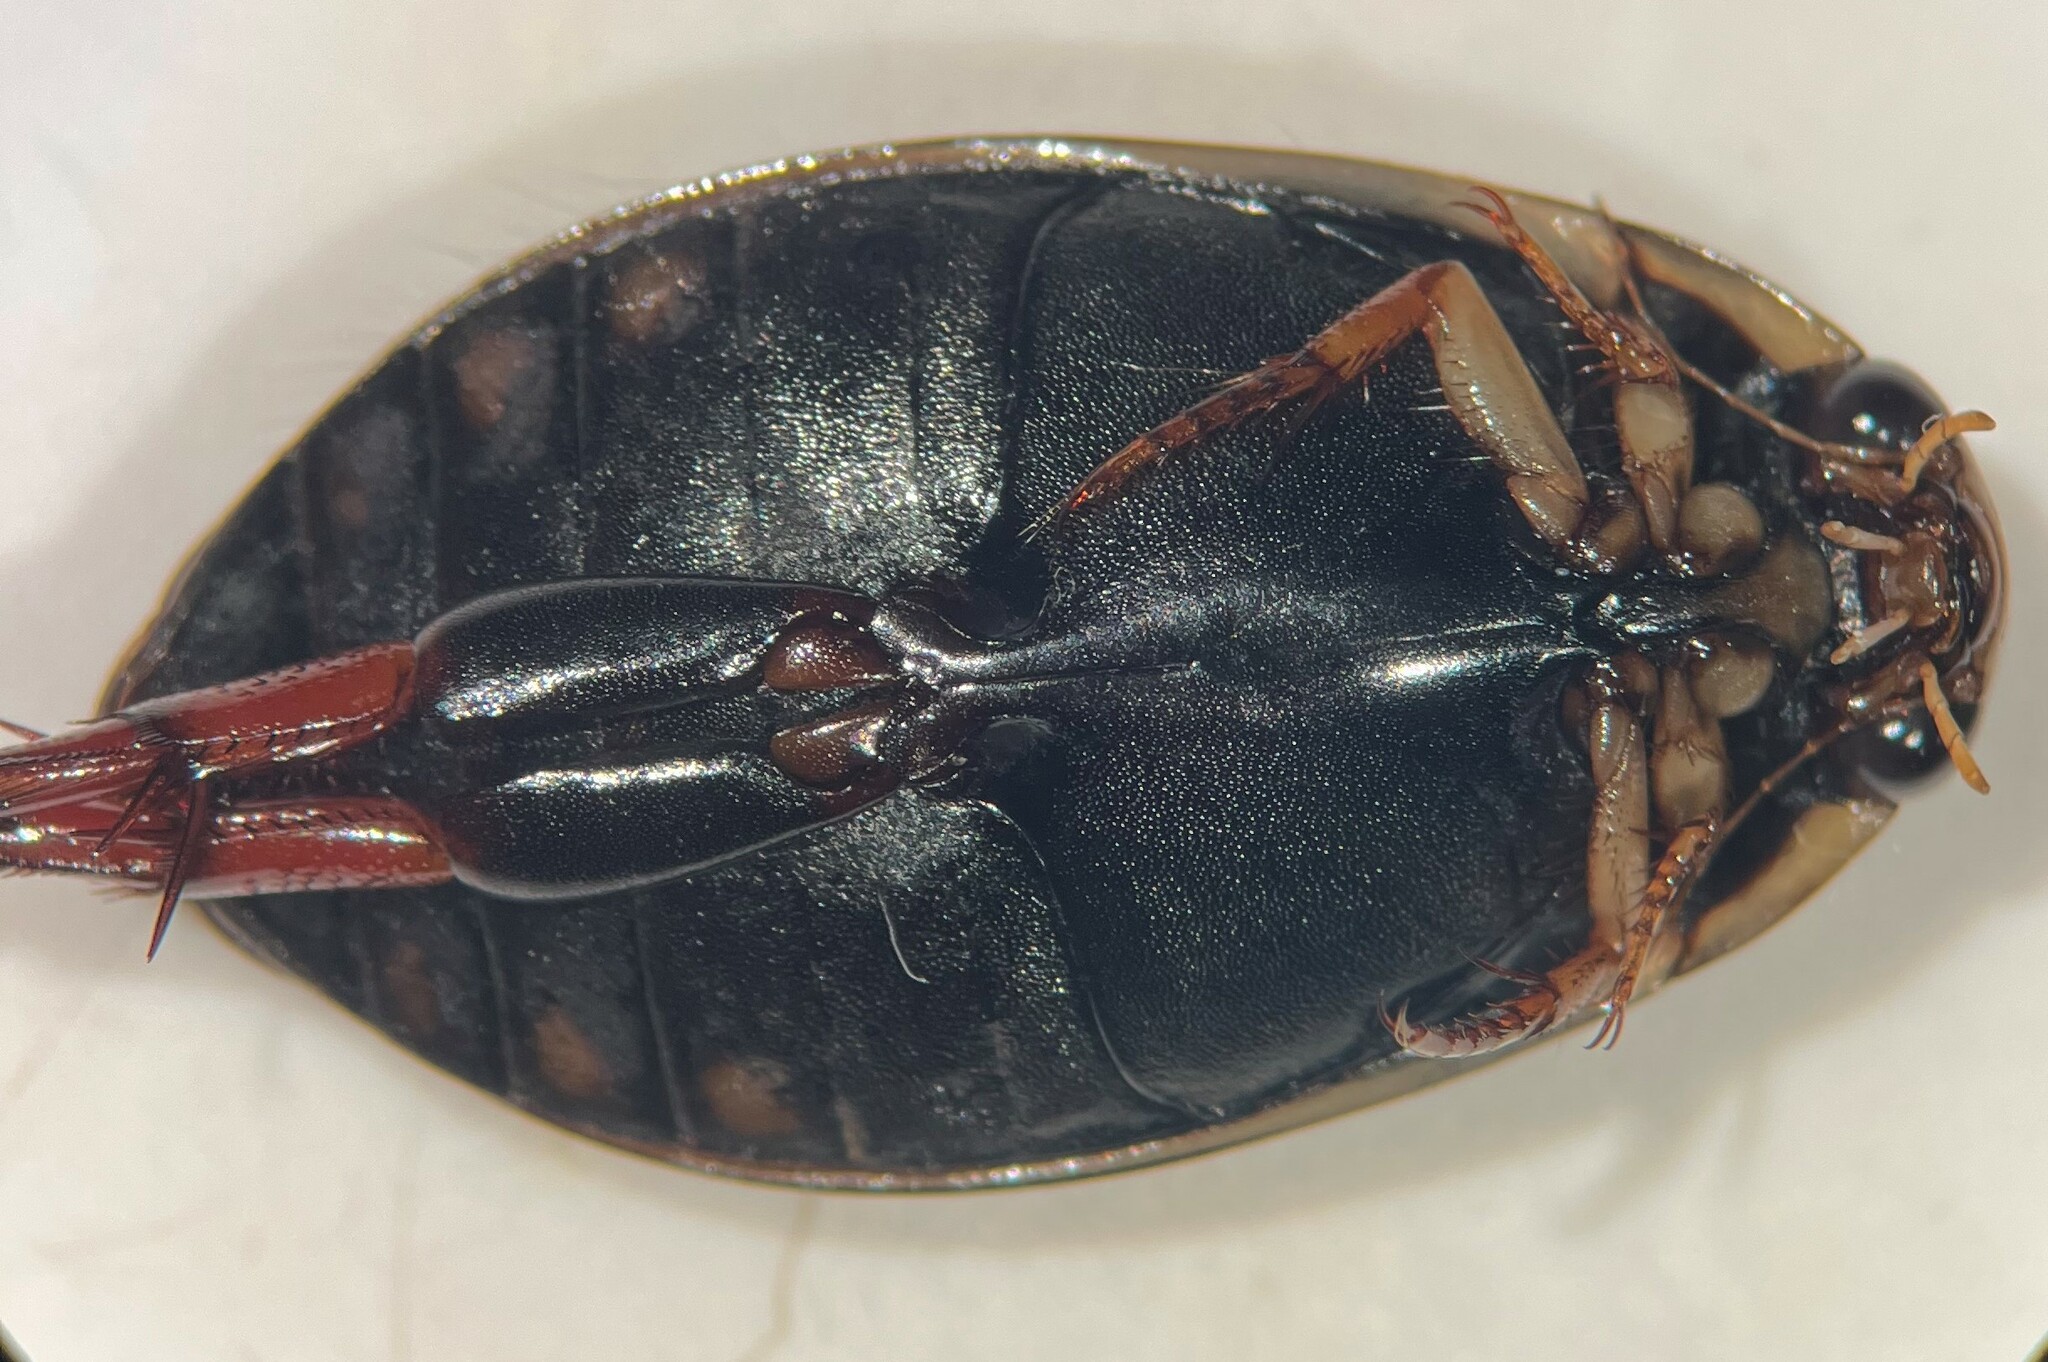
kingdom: Animalia
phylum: Arthropoda
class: Insecta
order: Coleoptera
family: Dytiscidae
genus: Acilius
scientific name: Acilius fraternus
